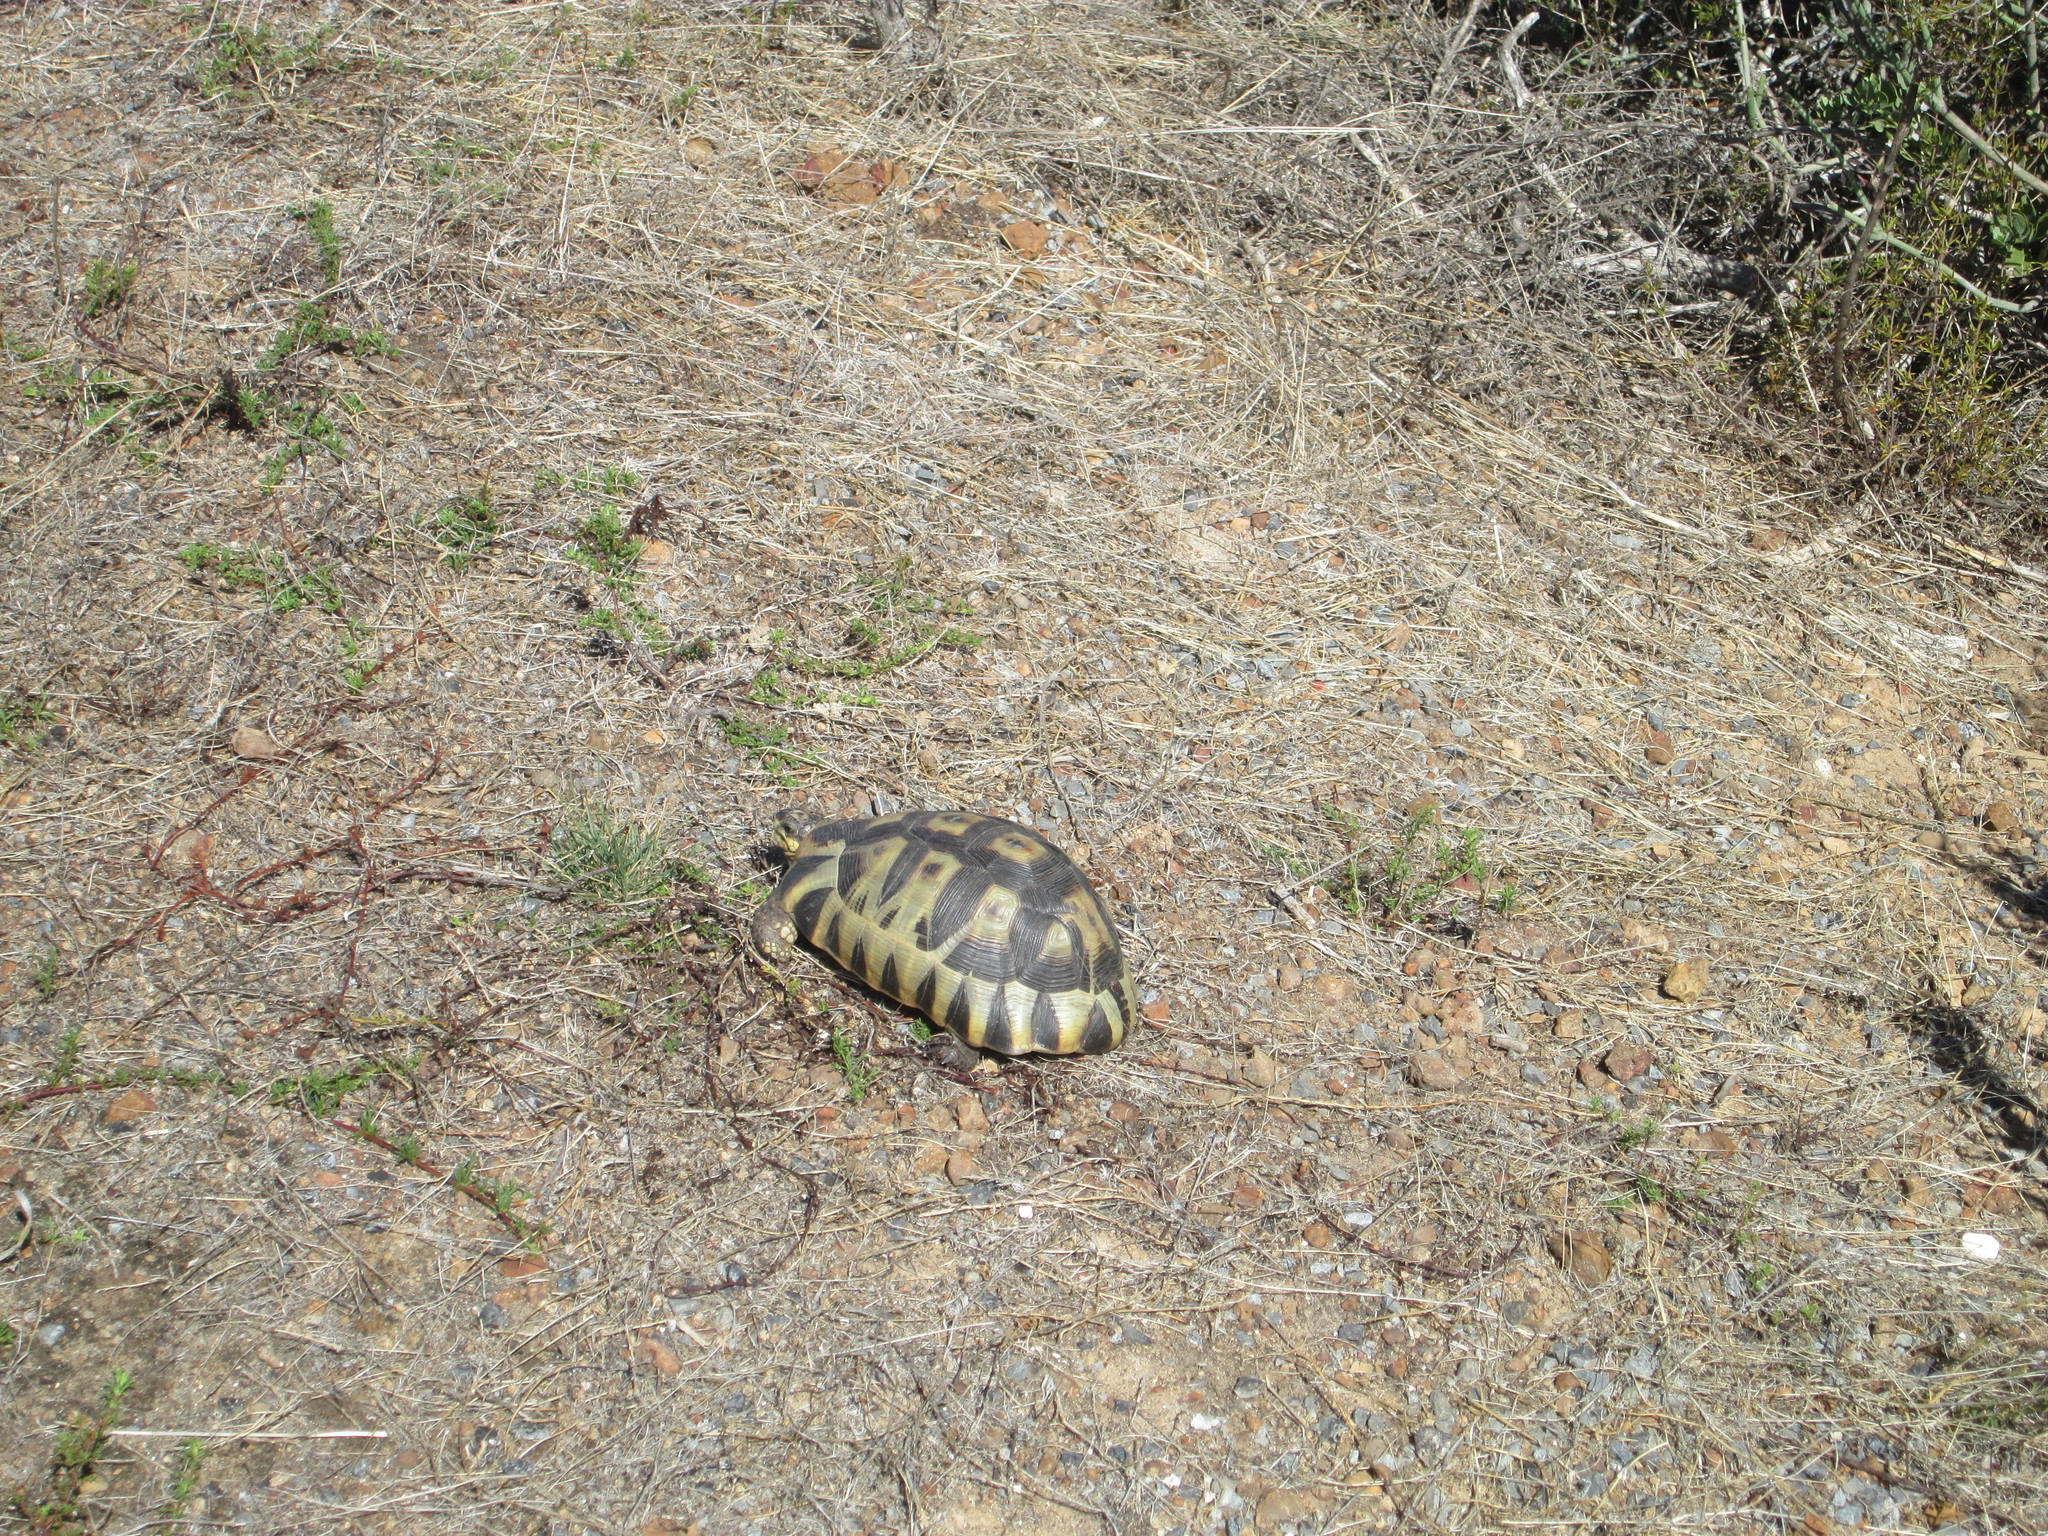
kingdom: Animalia
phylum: Chordata
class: Testudines
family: Testudinidae
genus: Chersina
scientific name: Chersina angulata
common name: South african bowsprit tortoise
